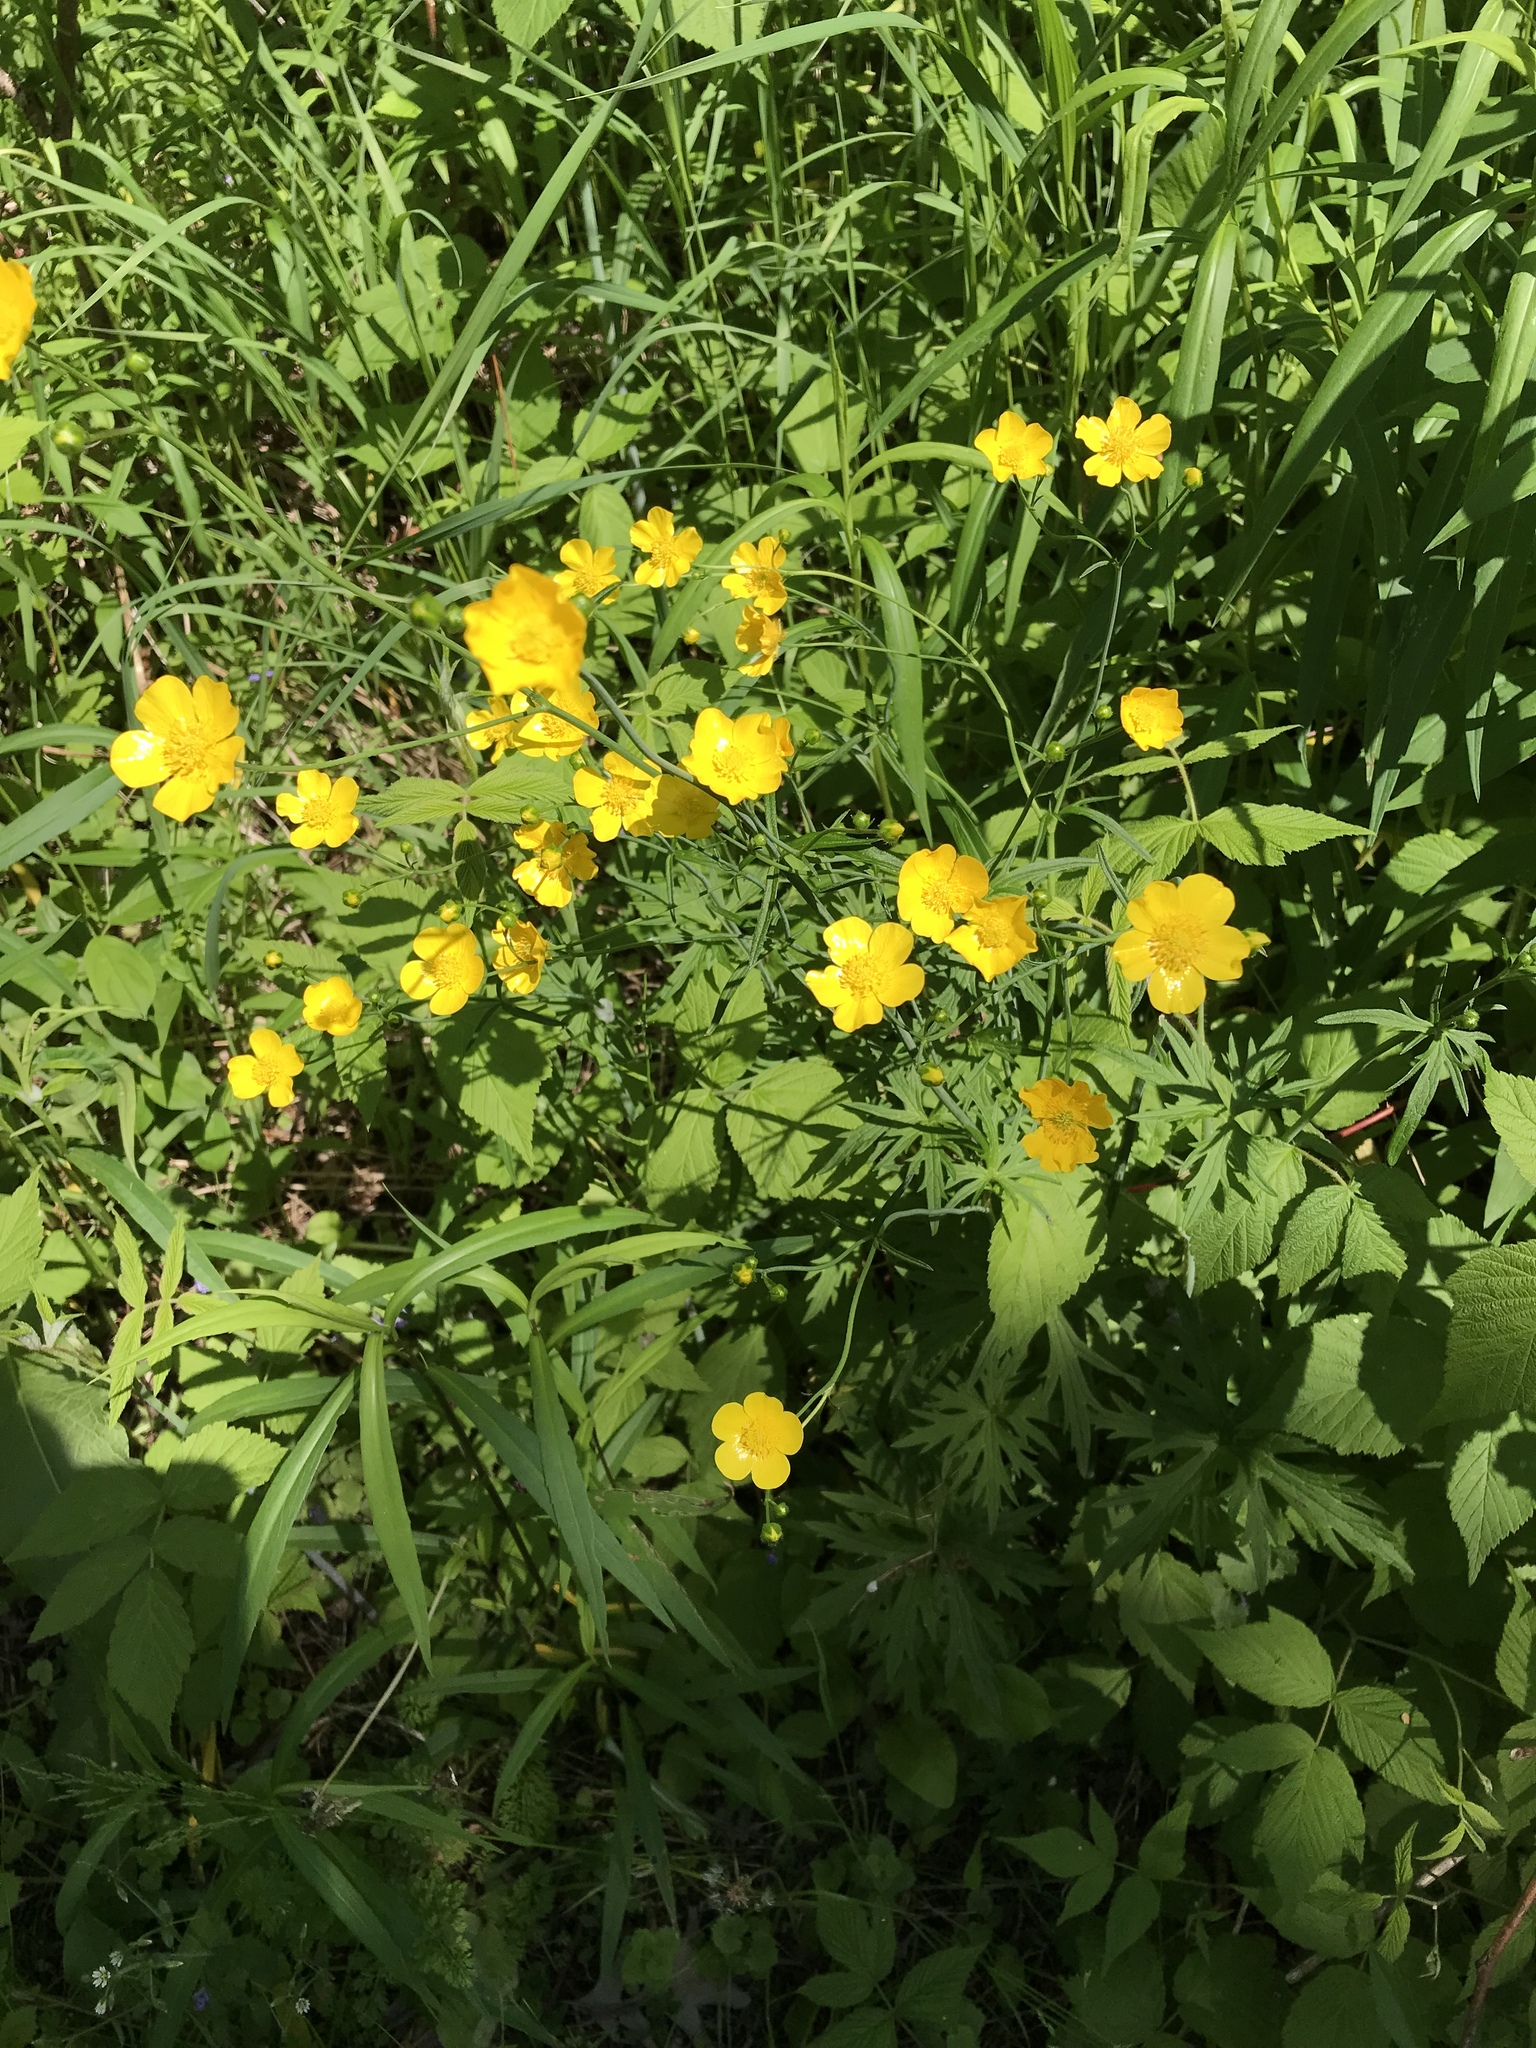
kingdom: Plantae
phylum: Tracheophyta
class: Magnoliopsida
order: Ranunculales
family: Ranunculaceae
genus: Ranunculus
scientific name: Ranunculus acris
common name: Meadow buttercup
